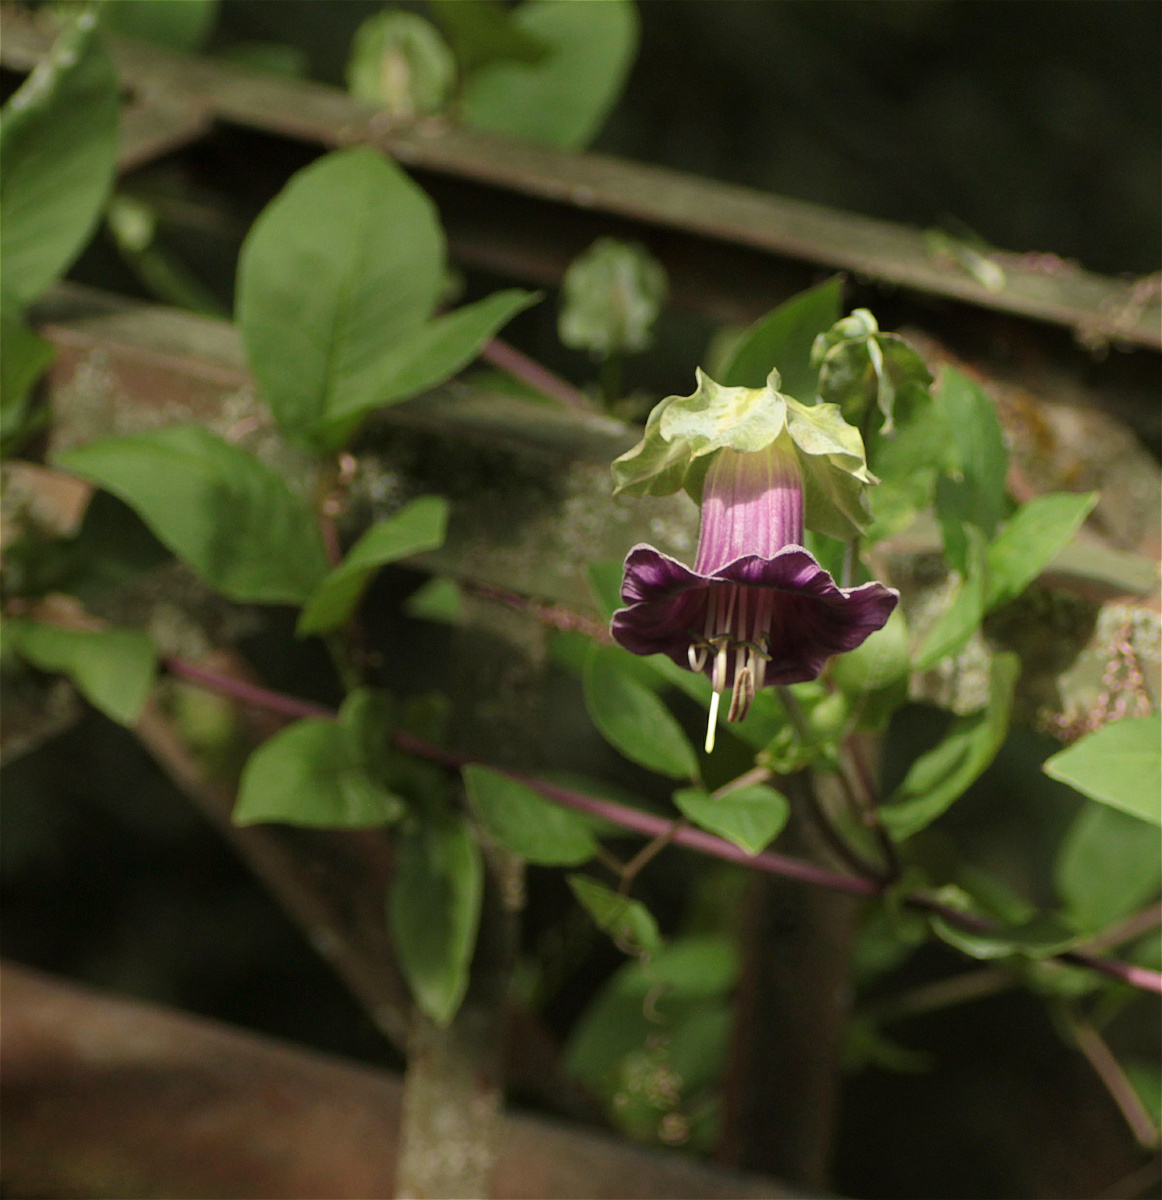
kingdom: Plantae
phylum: Tracheophyta
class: Magnoliopsida
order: Ericales
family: Polemoniaceae
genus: Cobaea
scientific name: Cobaea scandens
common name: Cup-and-saucer-vine
